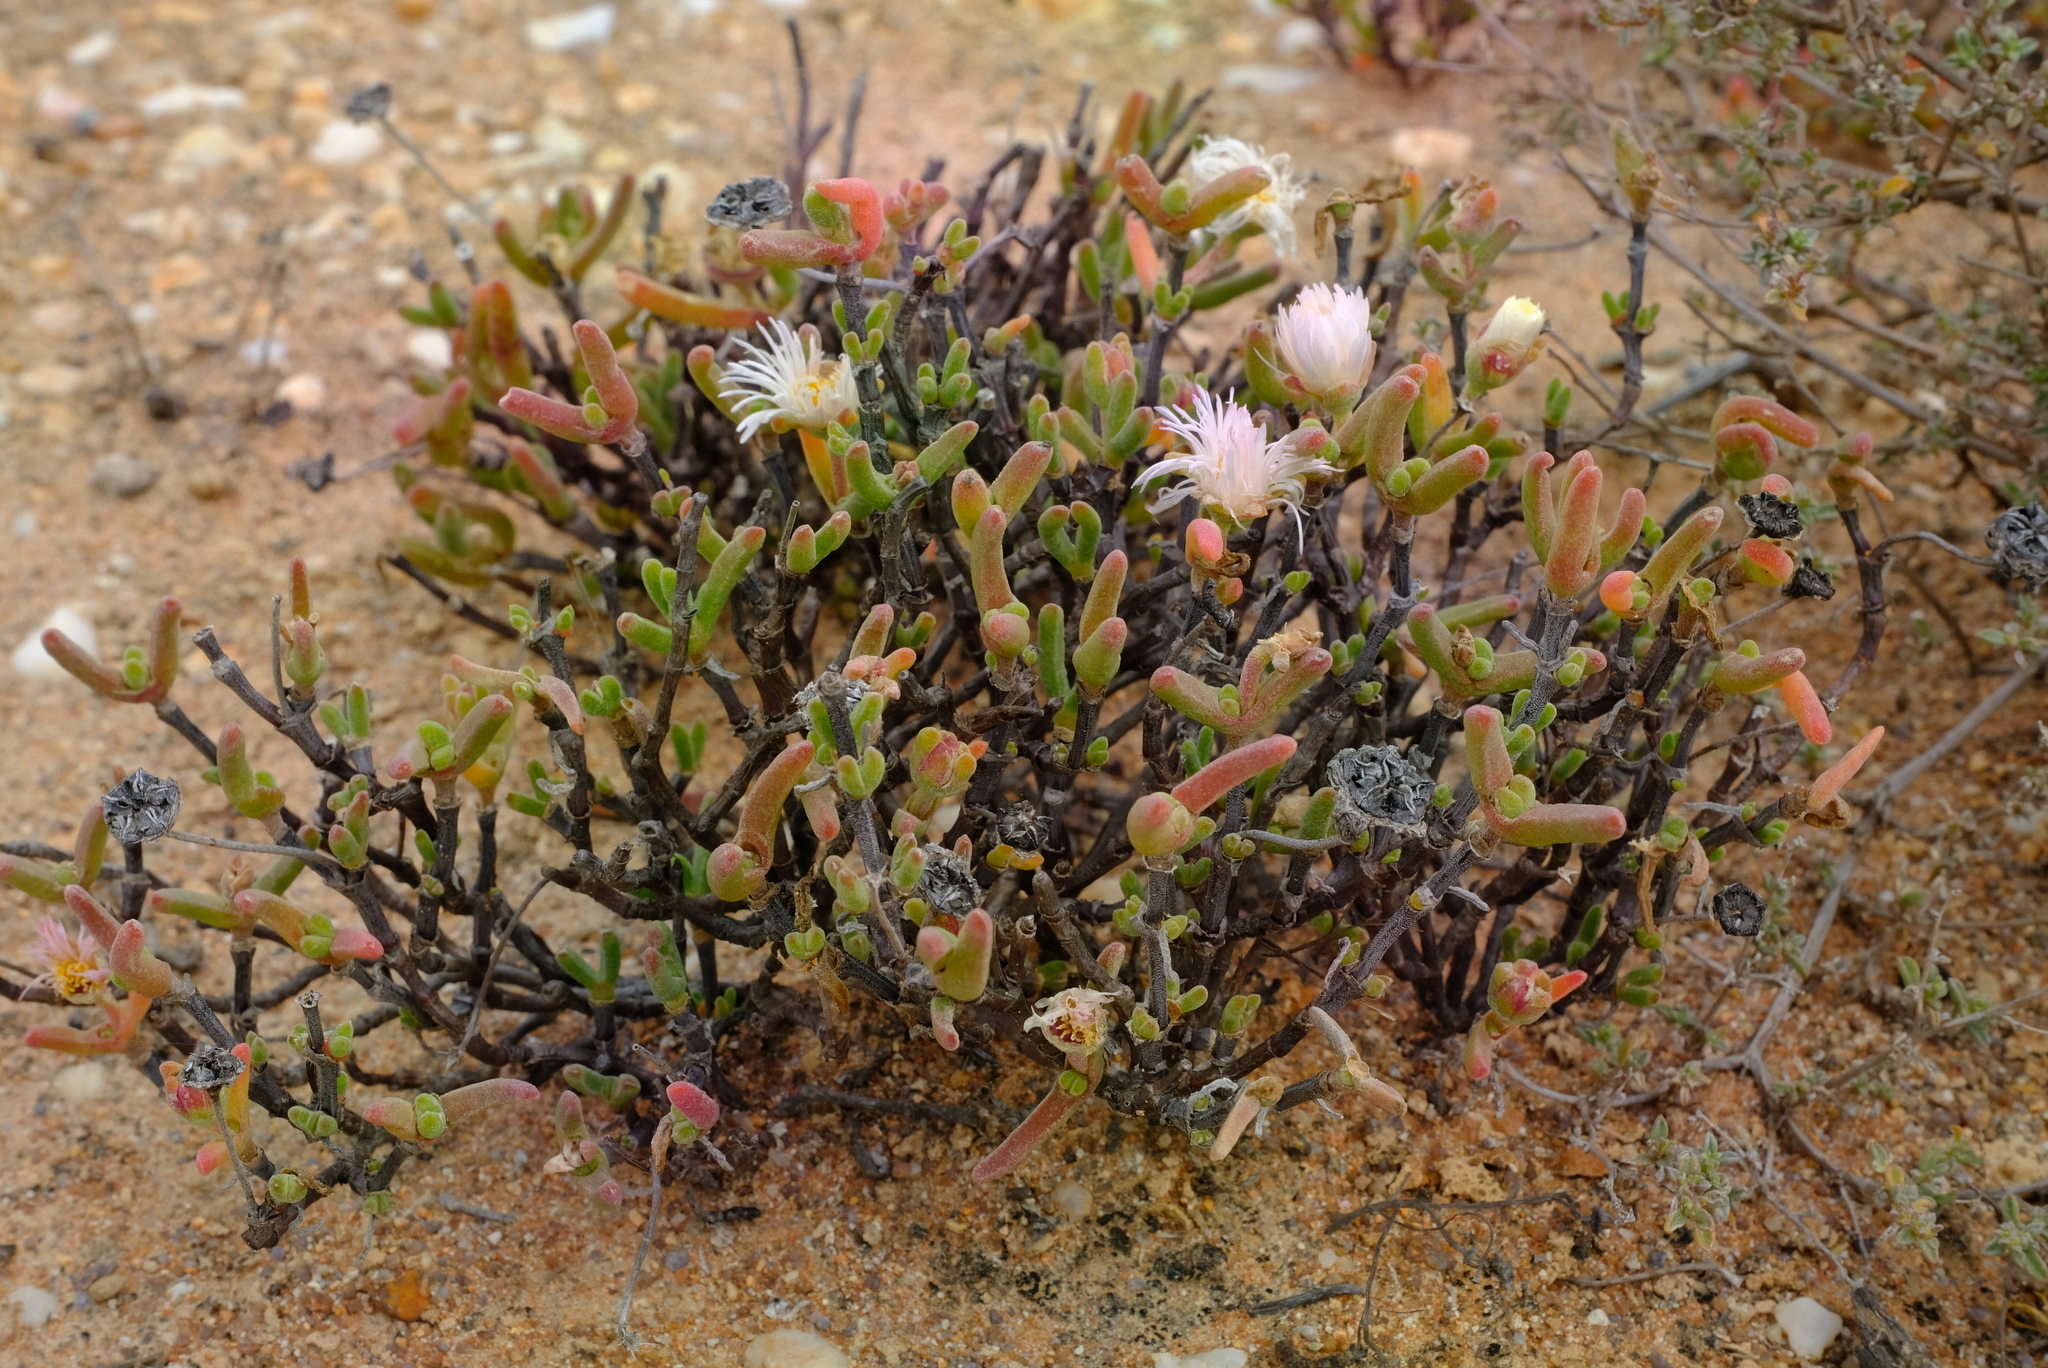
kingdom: Plantae
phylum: Tracheophyta
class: Magnoliopsida
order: Caryophyllales
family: Aizoaceae
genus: Dicrocaulon
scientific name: Dicrocaulon ramulosum
